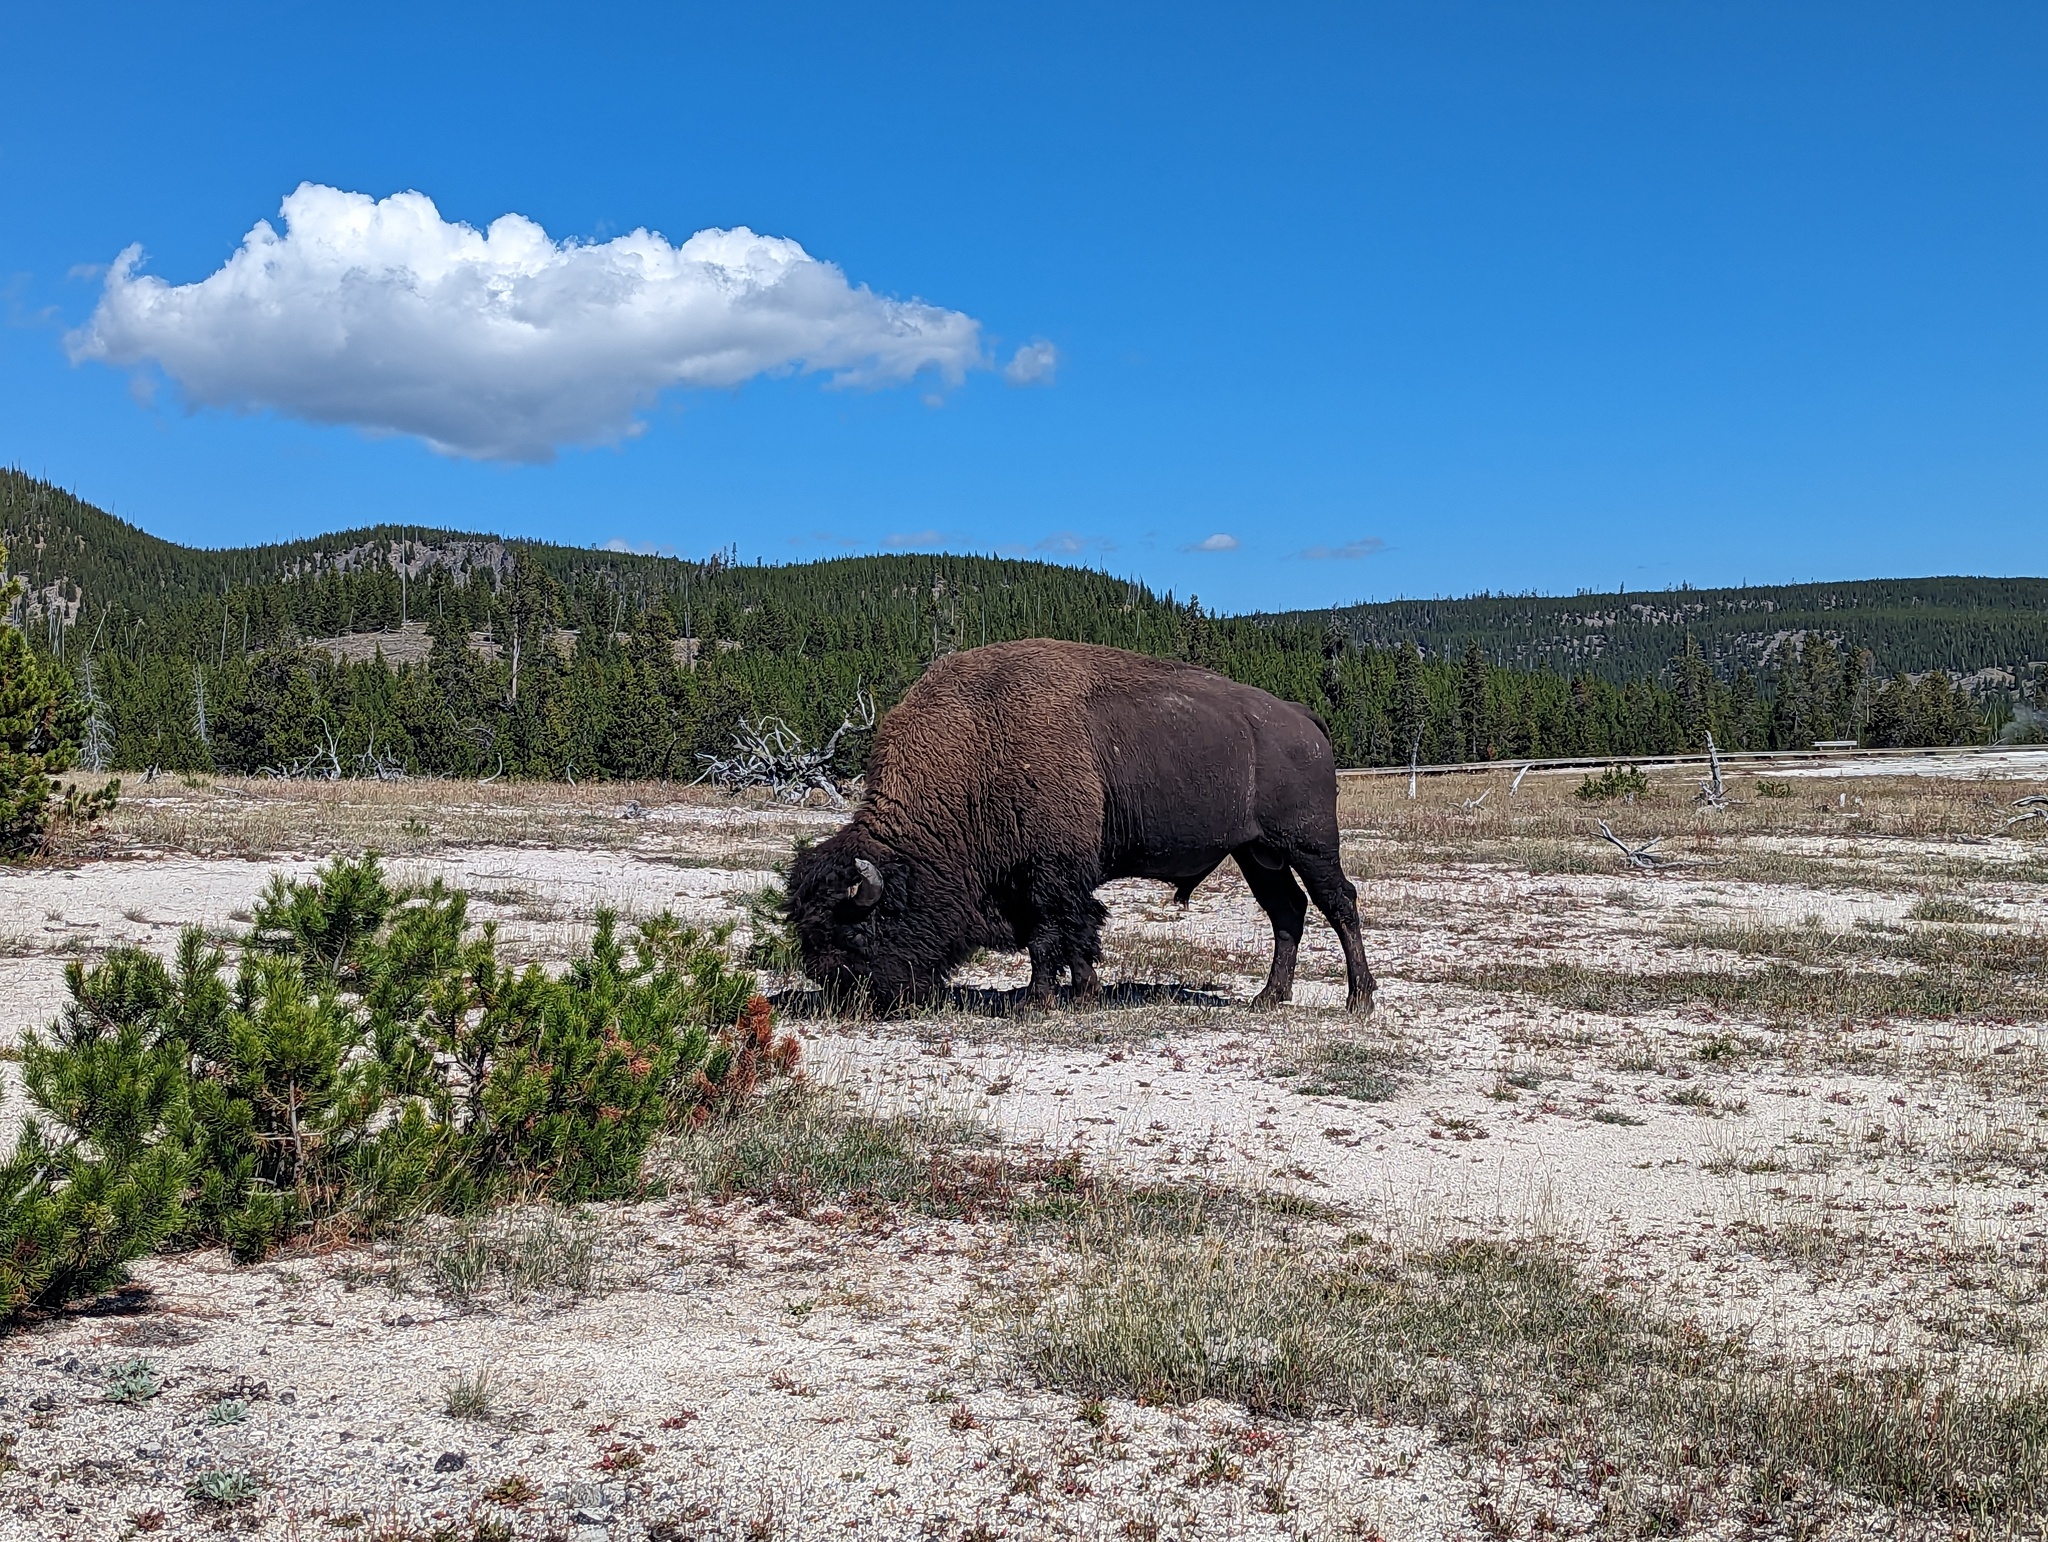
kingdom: Animalia
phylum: Chordata
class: Mammalia
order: Artiodactyla
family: Bovidae
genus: Bison
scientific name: Bison bison
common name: American bison
